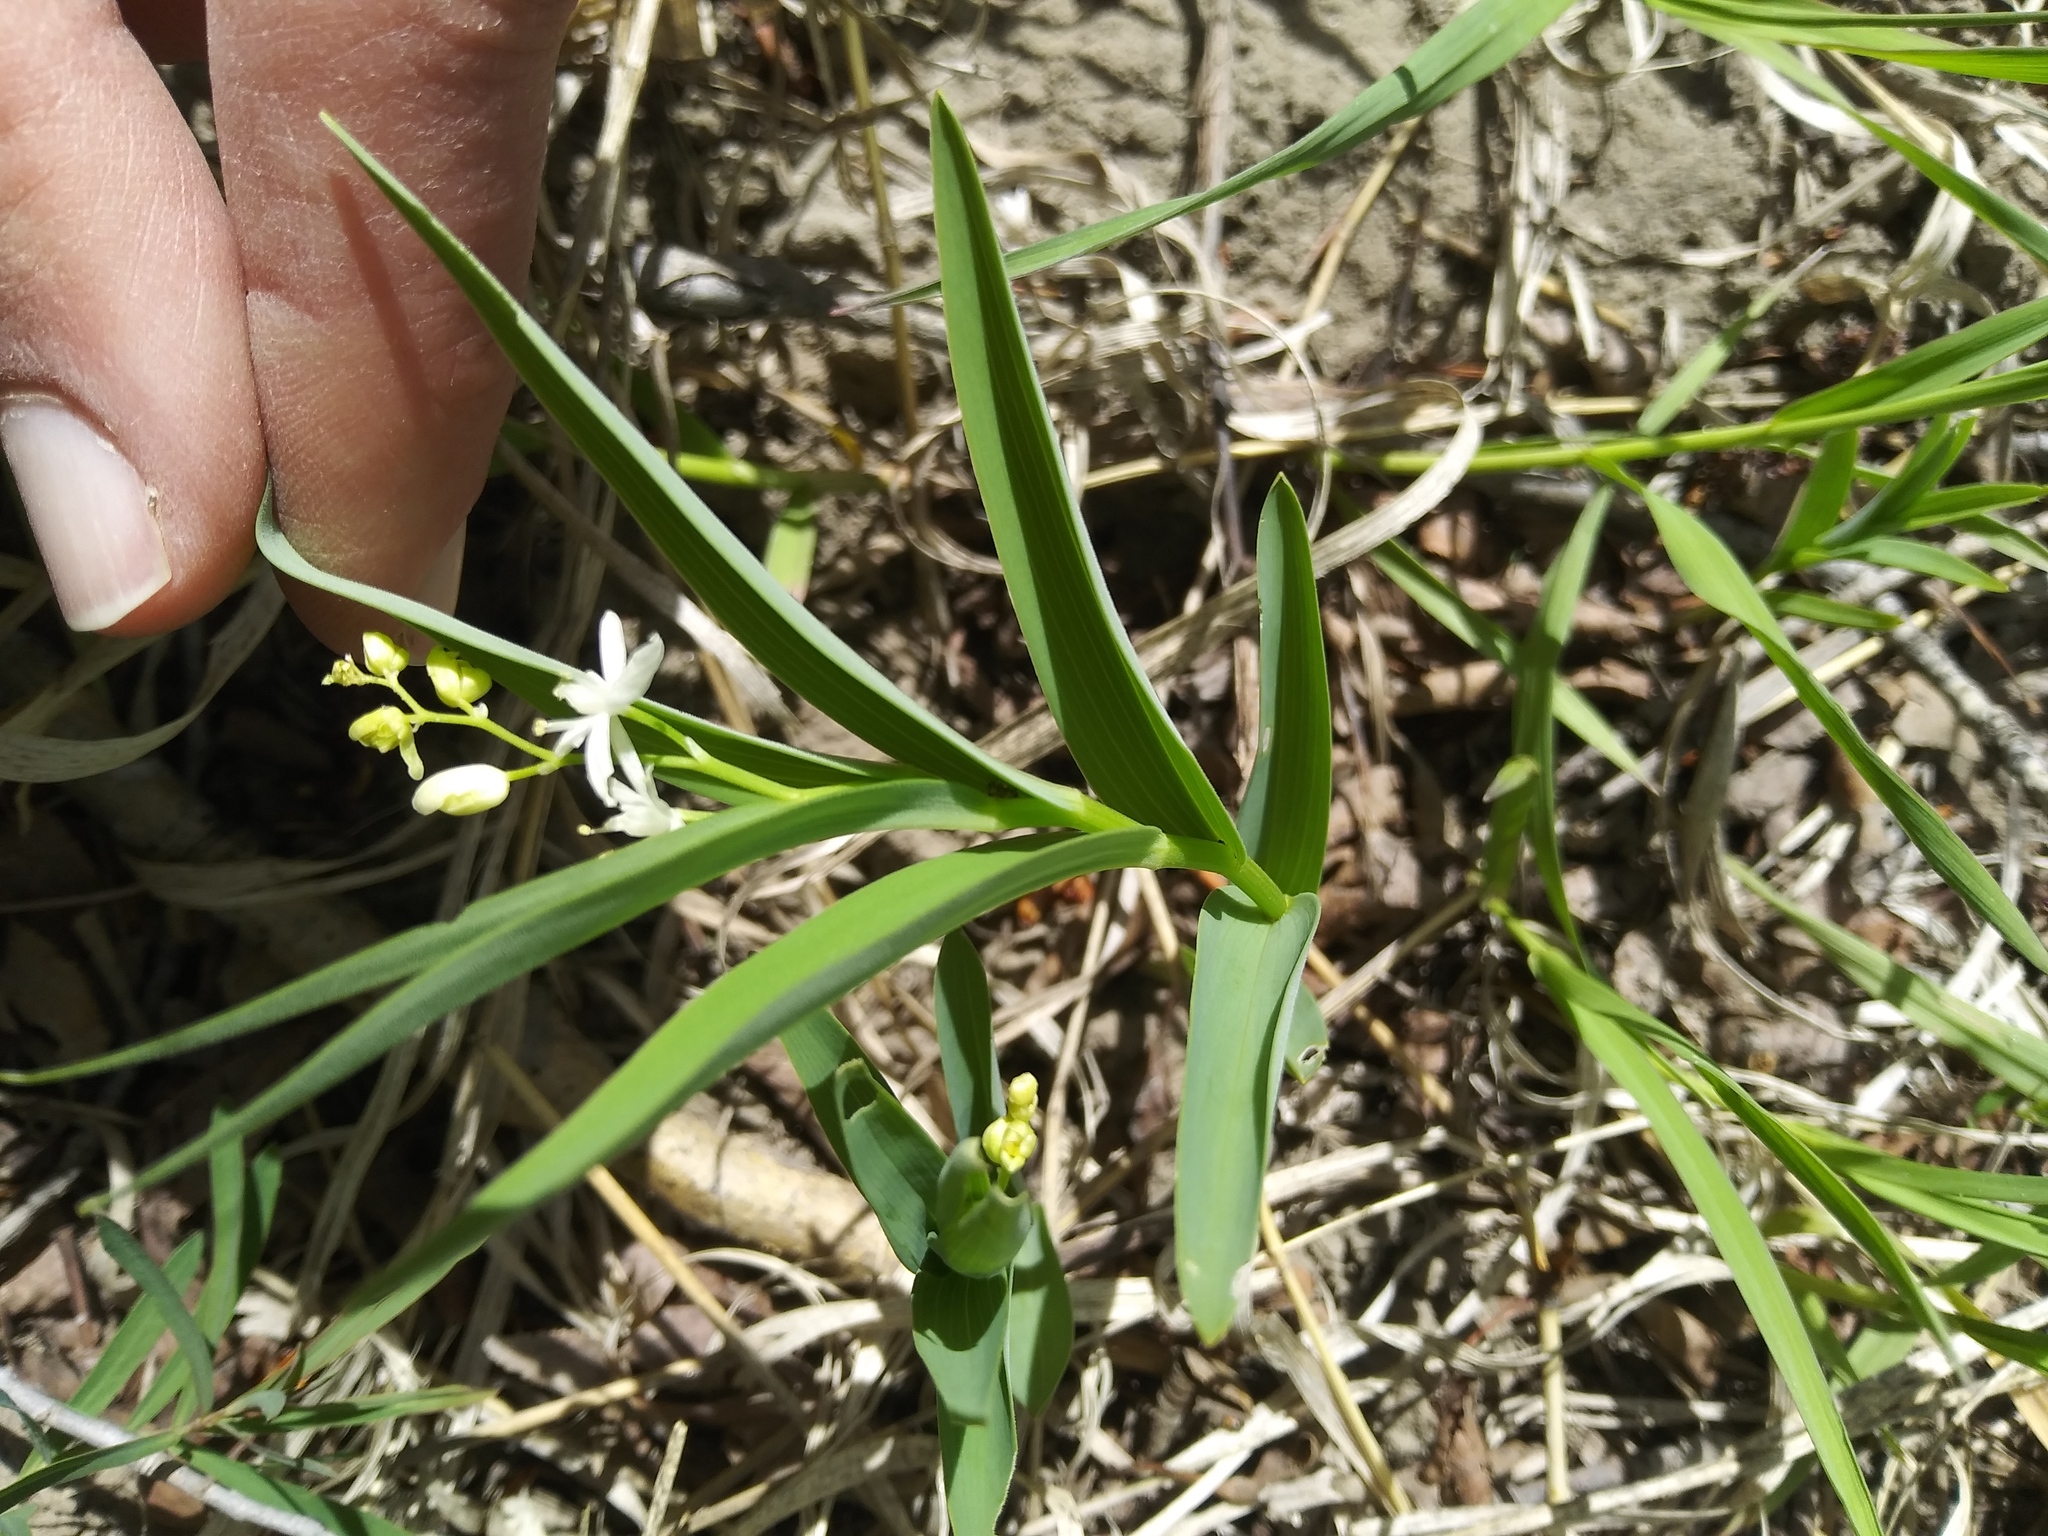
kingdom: Plantae
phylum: Tracheophyta
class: Liliopsida
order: Asparagales
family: Asparagaceae
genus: Maianthemum
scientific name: Maianthemum stellatum
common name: Little false solomon's seal
